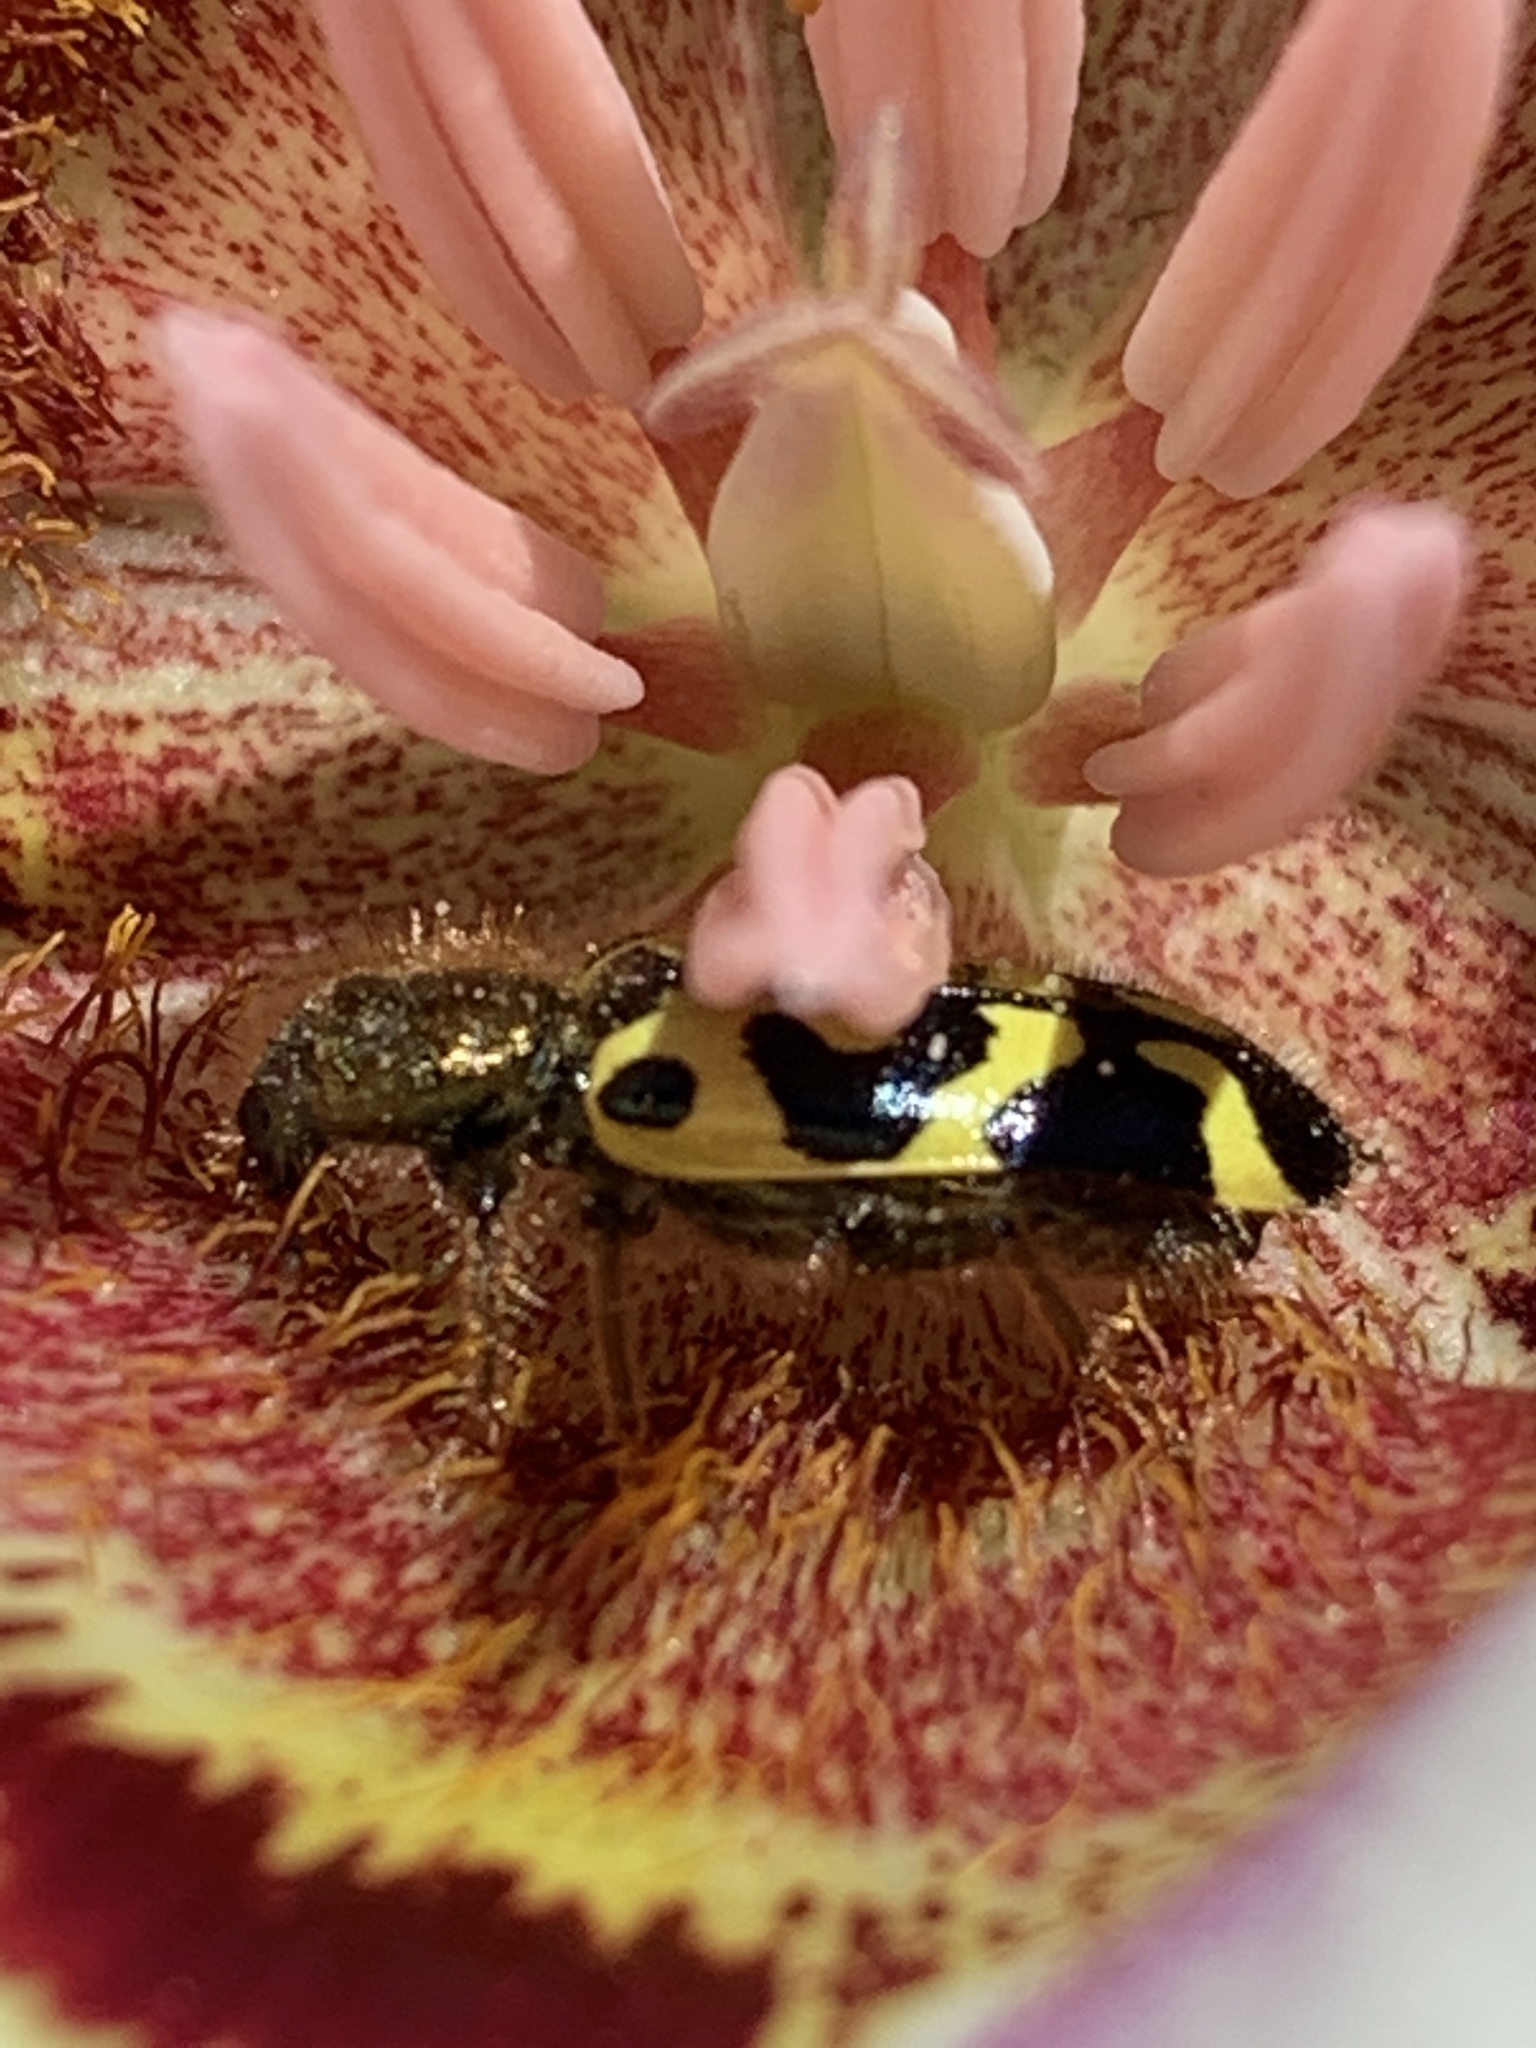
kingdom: Animalia
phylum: Arthropoda
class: Insecta
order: Coleoptera
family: Cleridae
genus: Trichodes
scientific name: Trichodes ornatus
